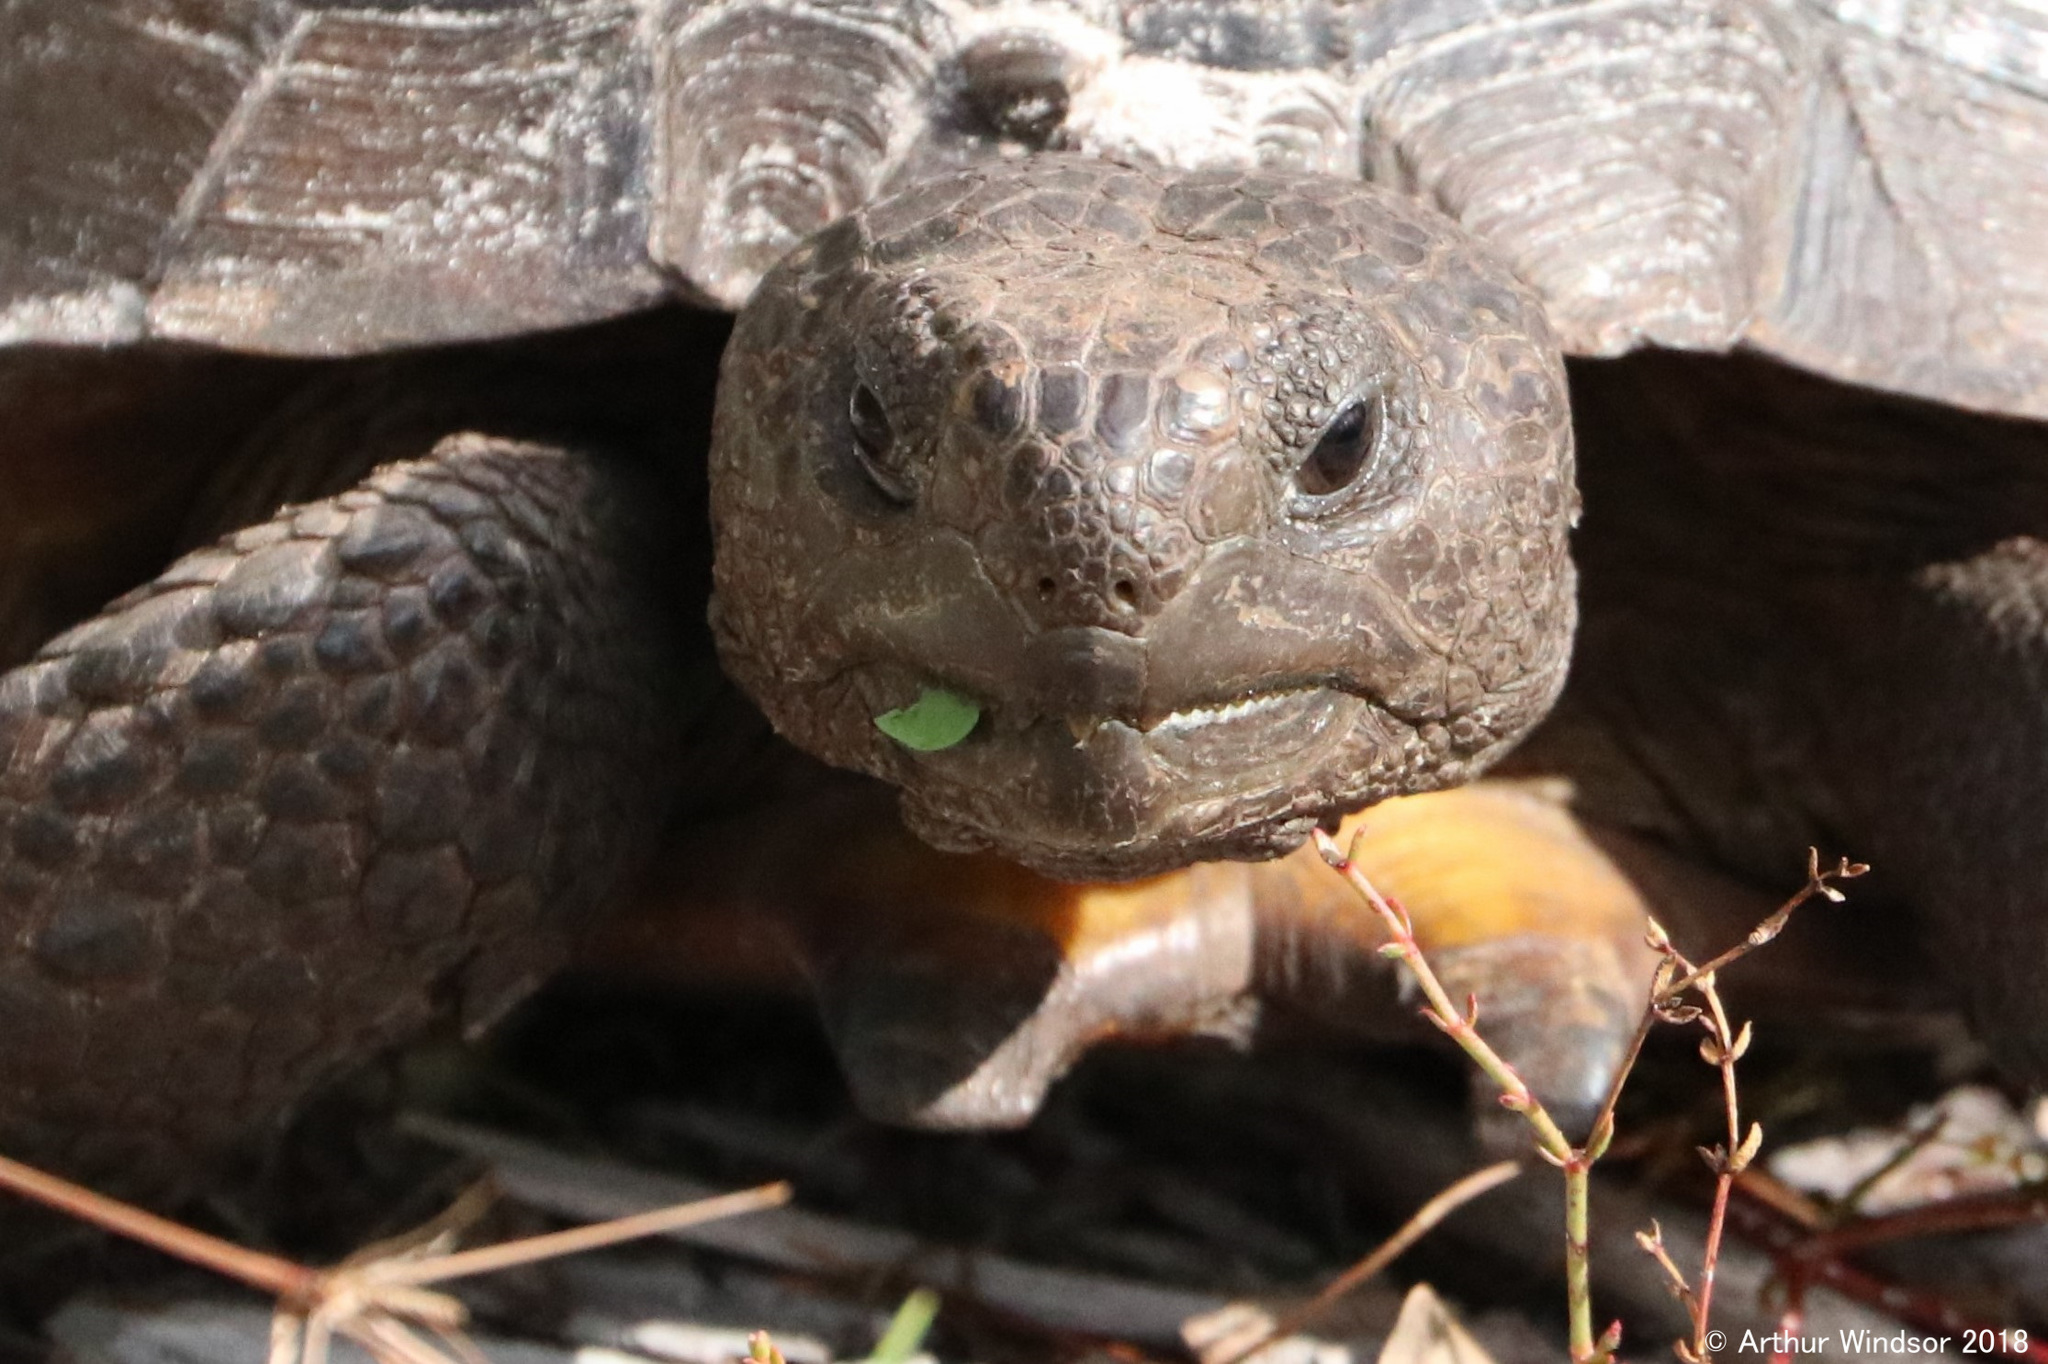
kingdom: Animalia
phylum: Chordata
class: Testudines
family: Testudinidae
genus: Gopherus
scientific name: Gopherus polyphemus
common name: Florida gopher tortoise
